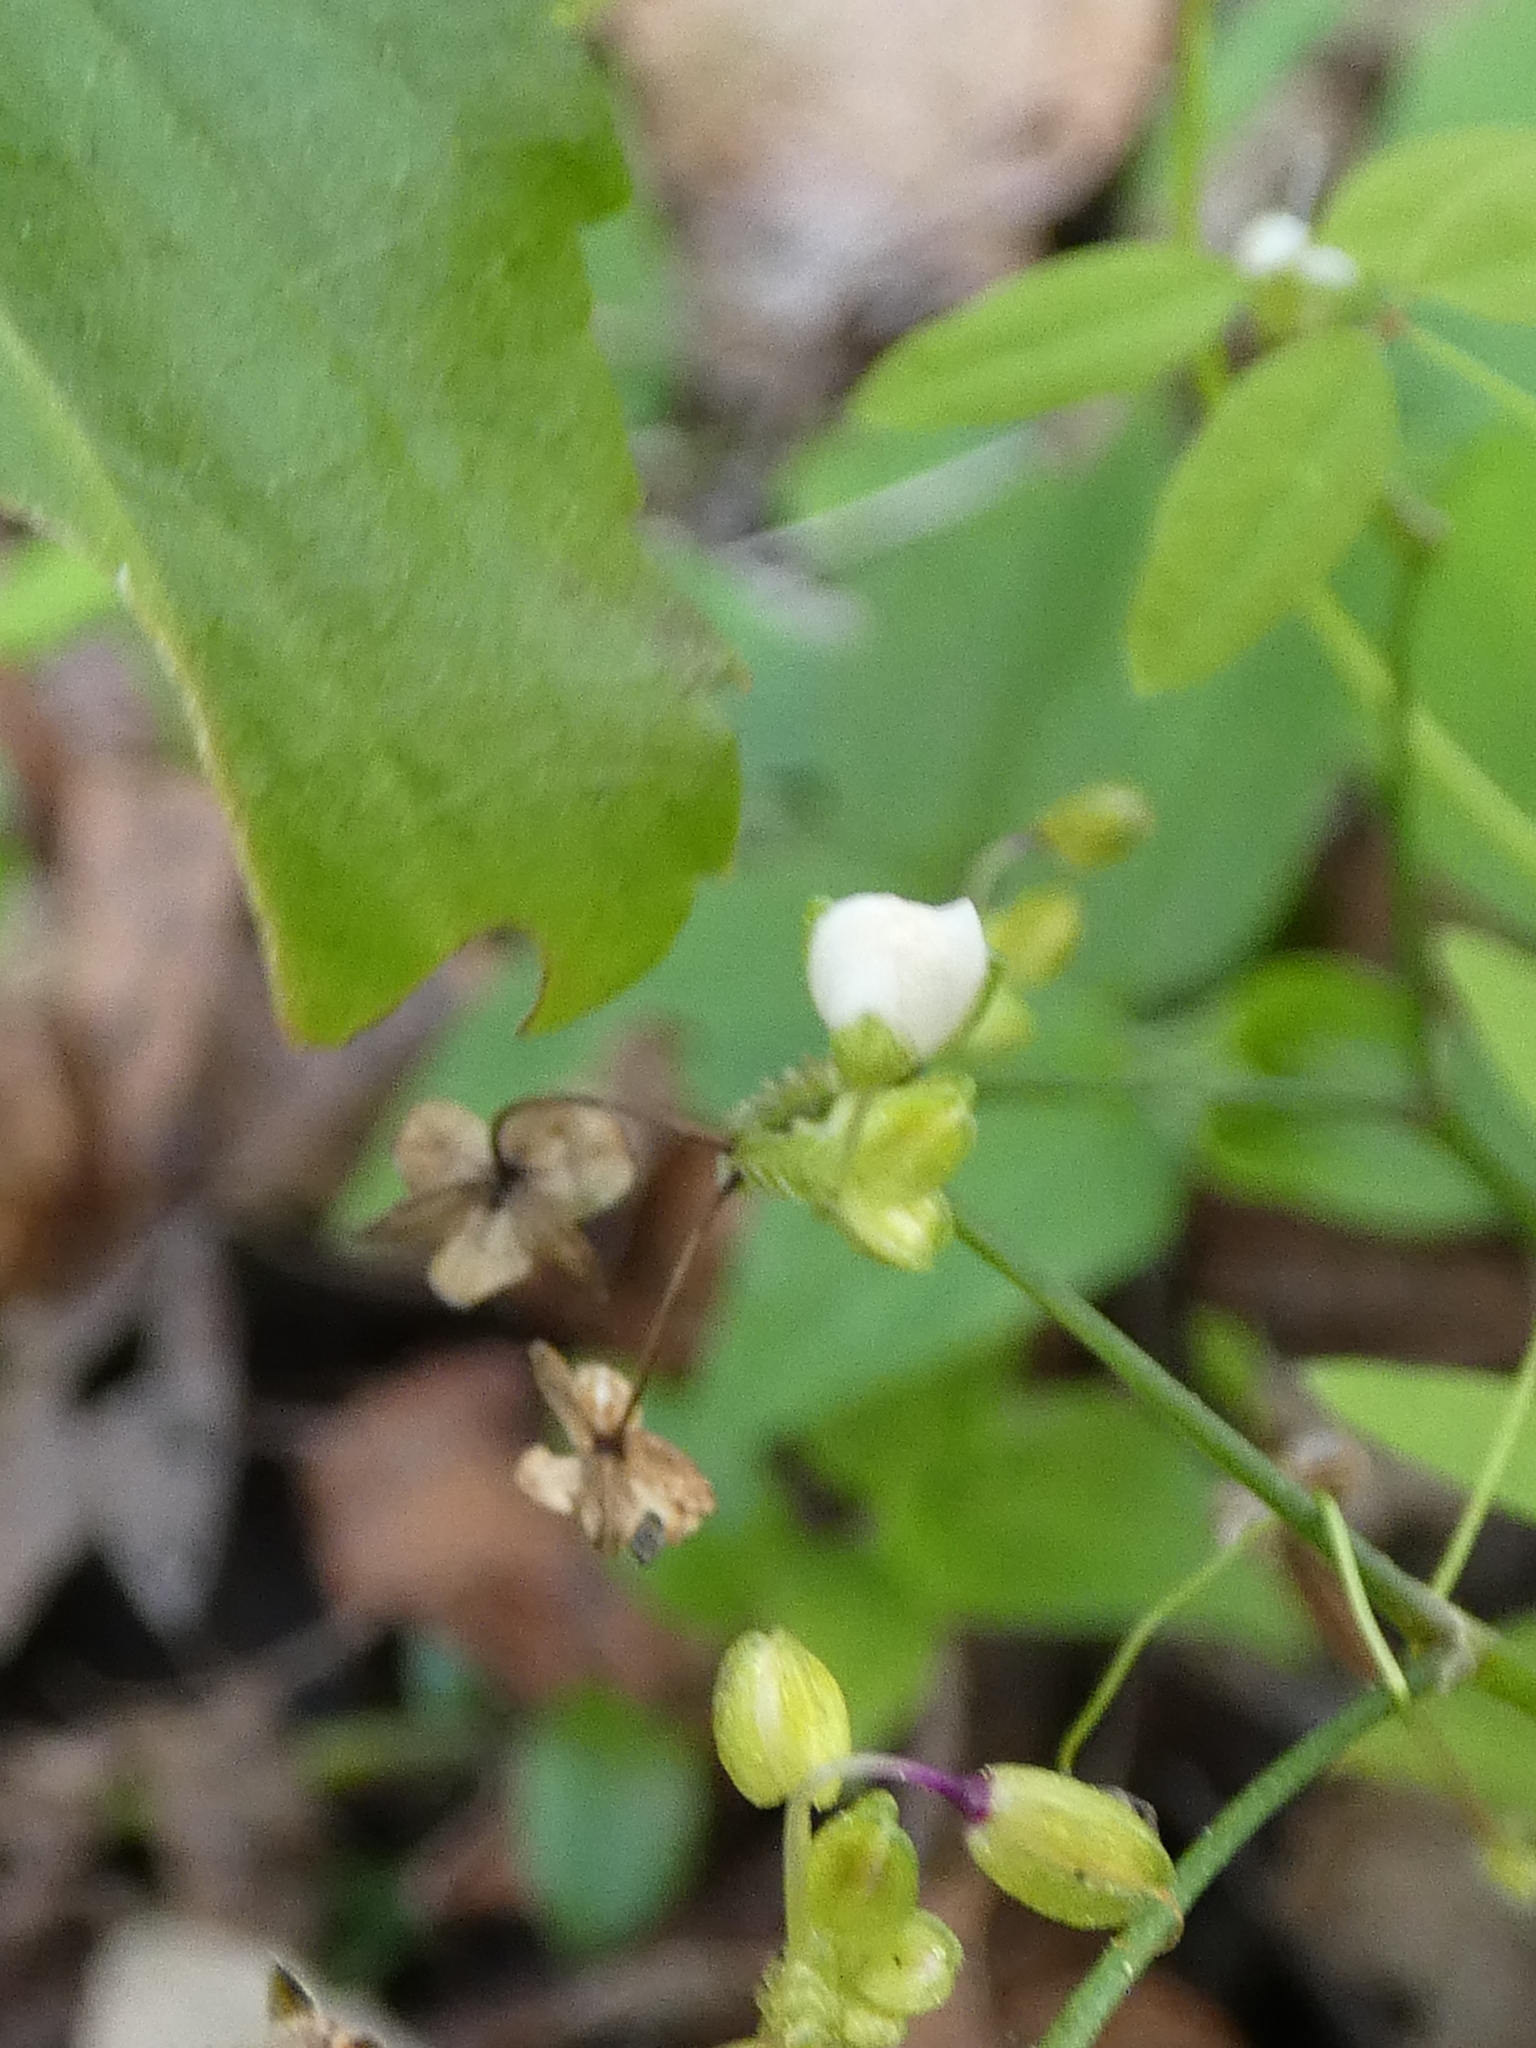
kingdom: Plantae
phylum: Tracheophyta
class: Liliopsida
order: Commelinales
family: Commelinaceae
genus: Gibasis
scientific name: Gibasis pellucida
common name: Dotted bridalveil
